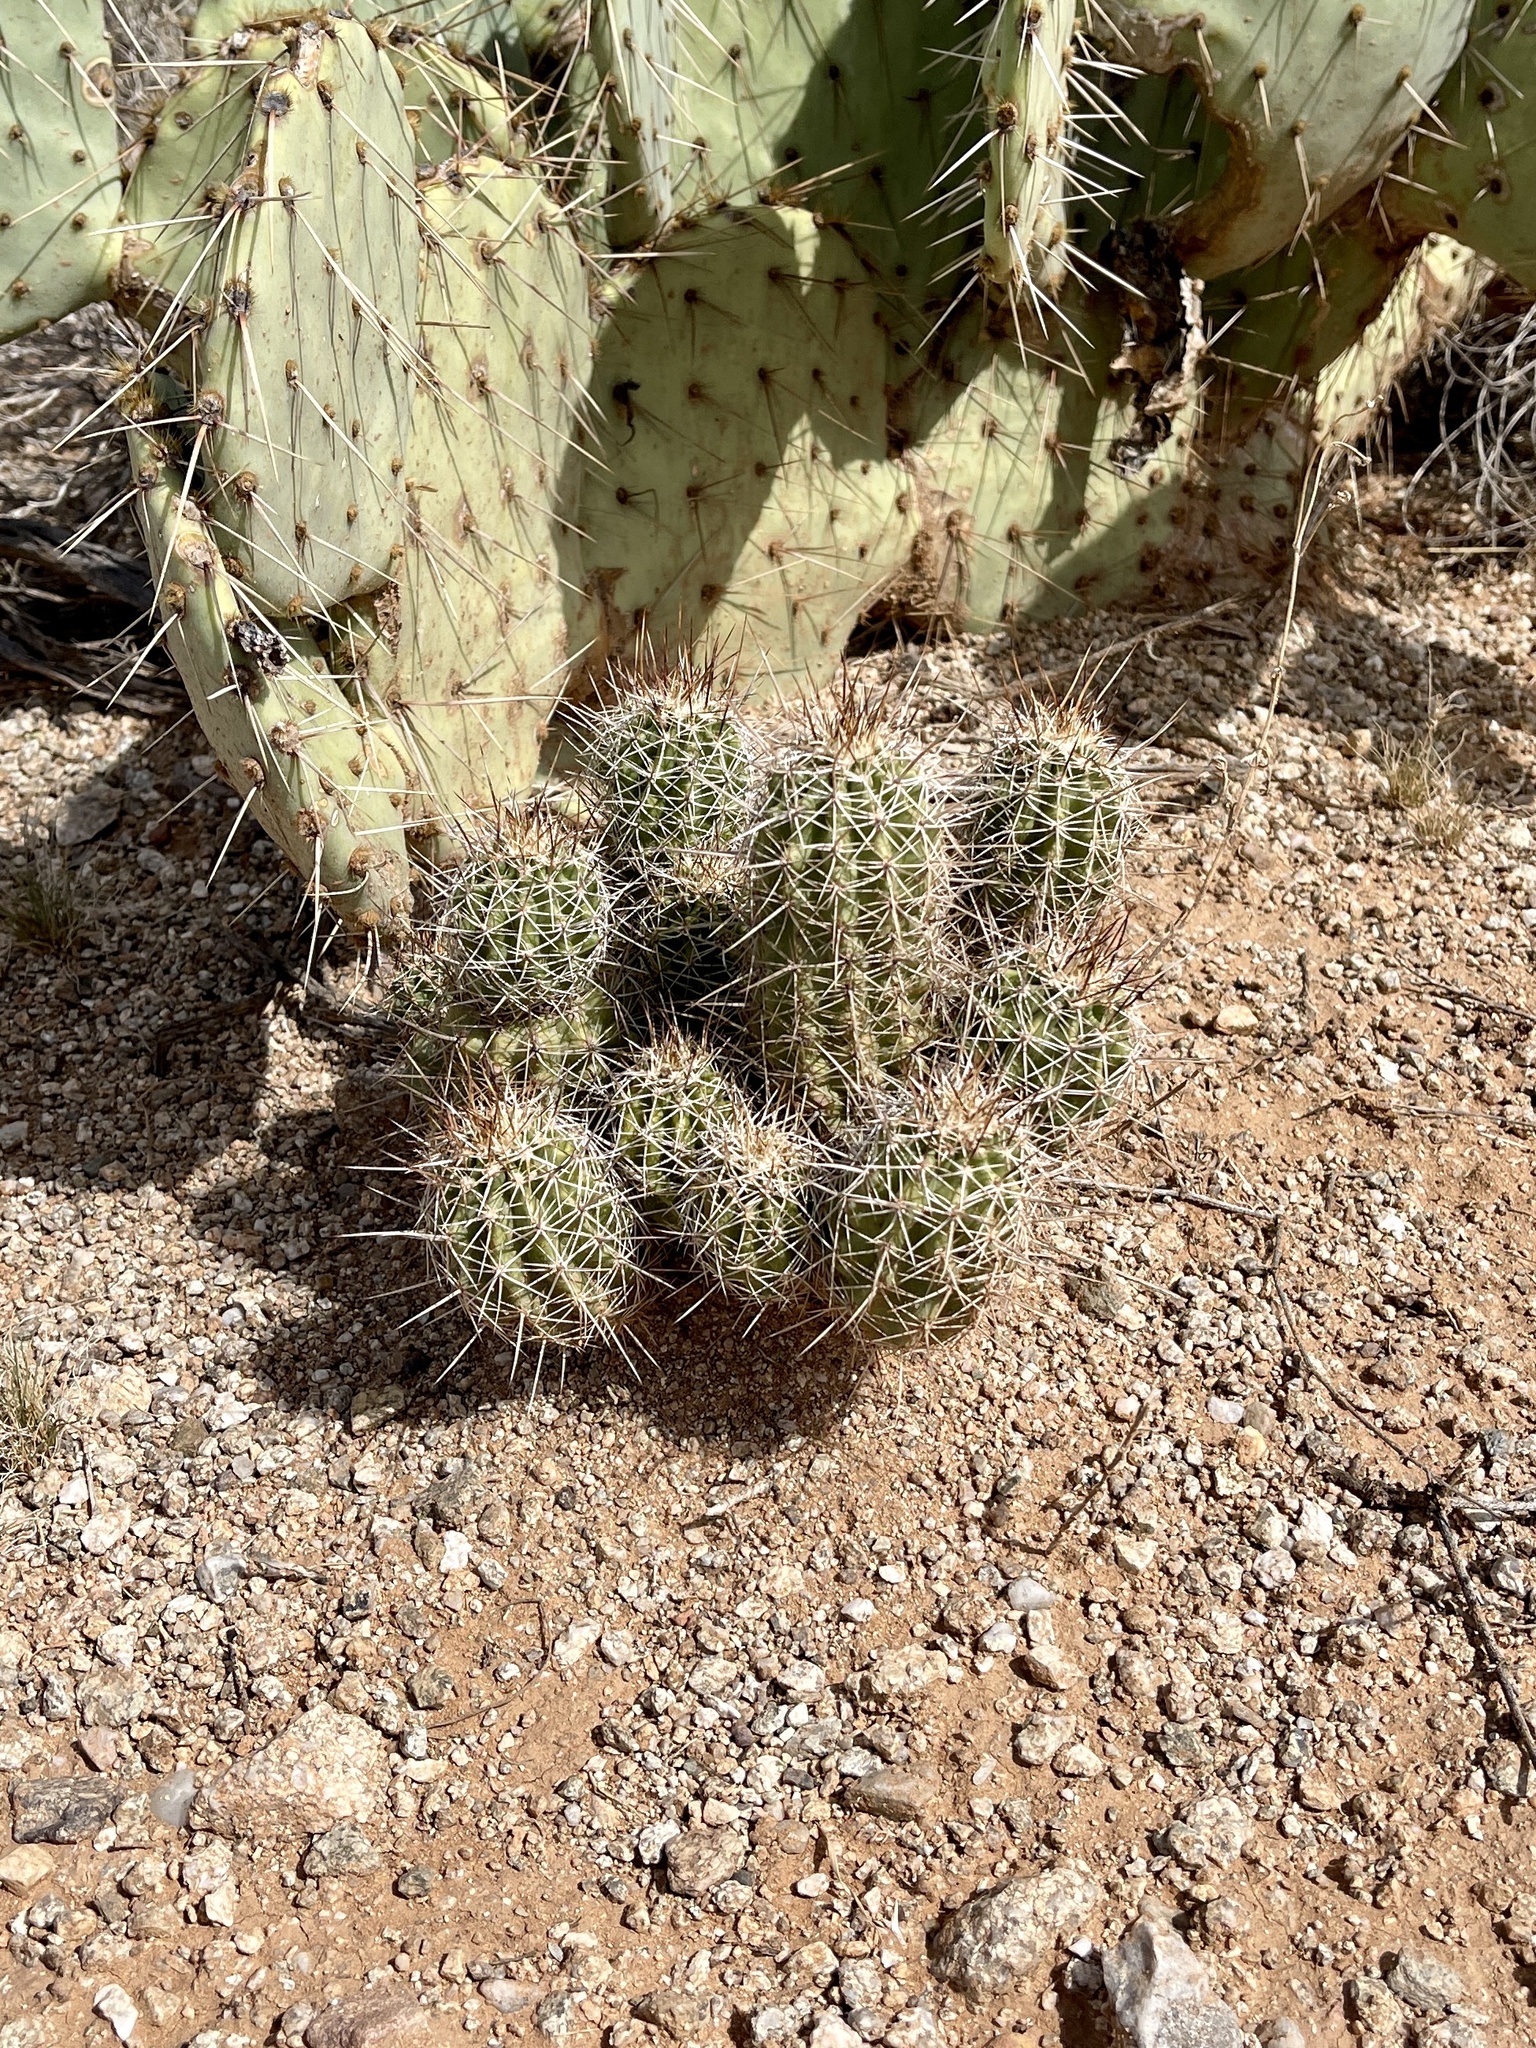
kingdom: Plantae
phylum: Tracheophyta
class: Magnoliopsida
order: Caryophyllales
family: Cactaceae
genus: Echinocereus
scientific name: Echinocereus fasciculatus
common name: Bundle hedgehog
